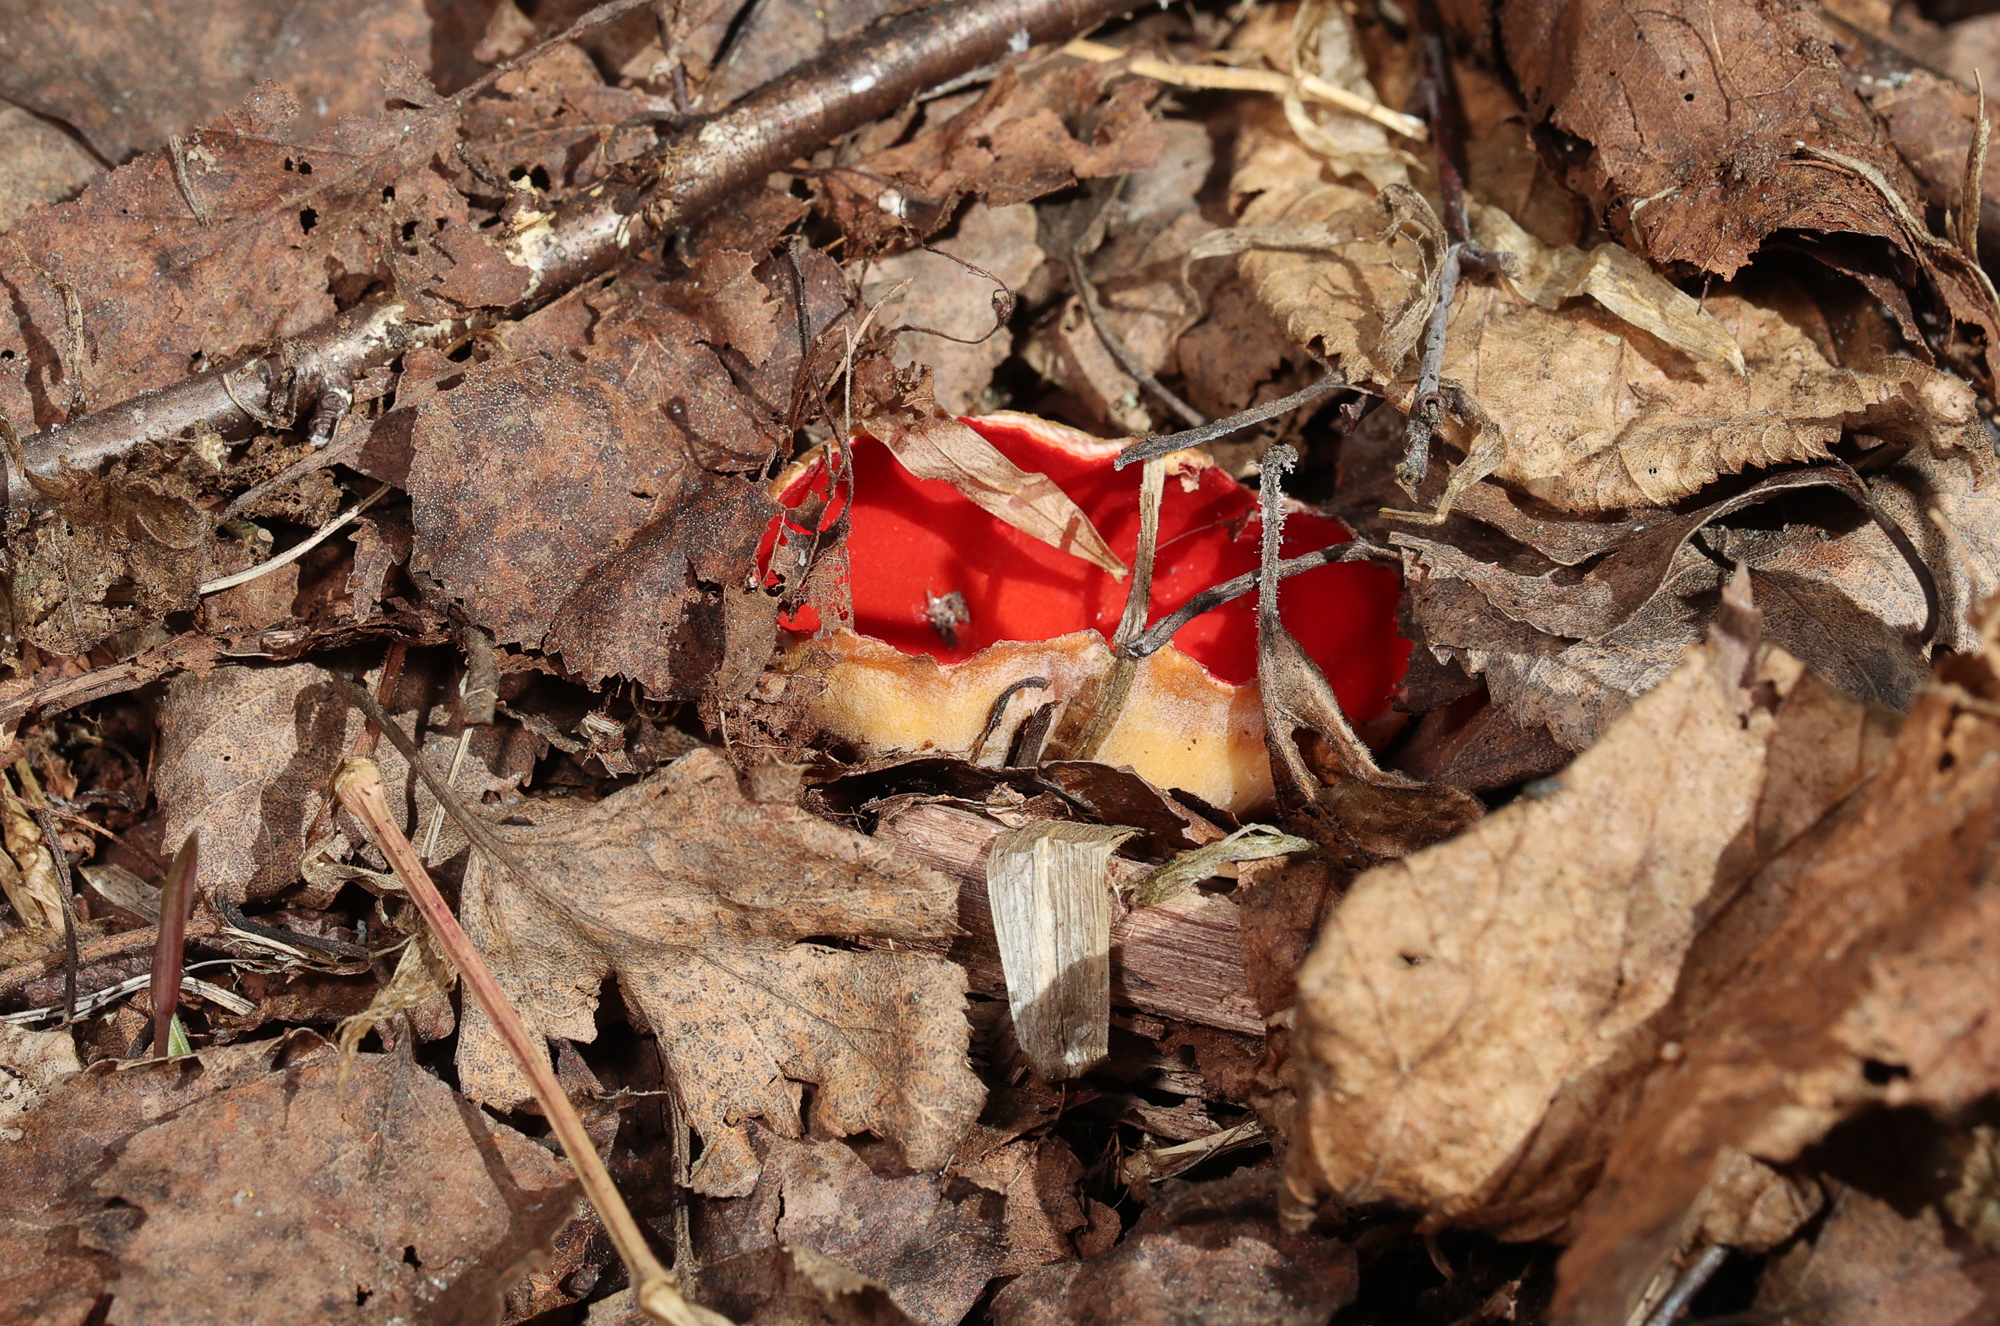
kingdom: Fungi
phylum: Ascomycota
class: Pezizomycetes
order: Pezizales
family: Sarcoscyphaceae
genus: Sarcoscypha
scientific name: Sarcoscypha
